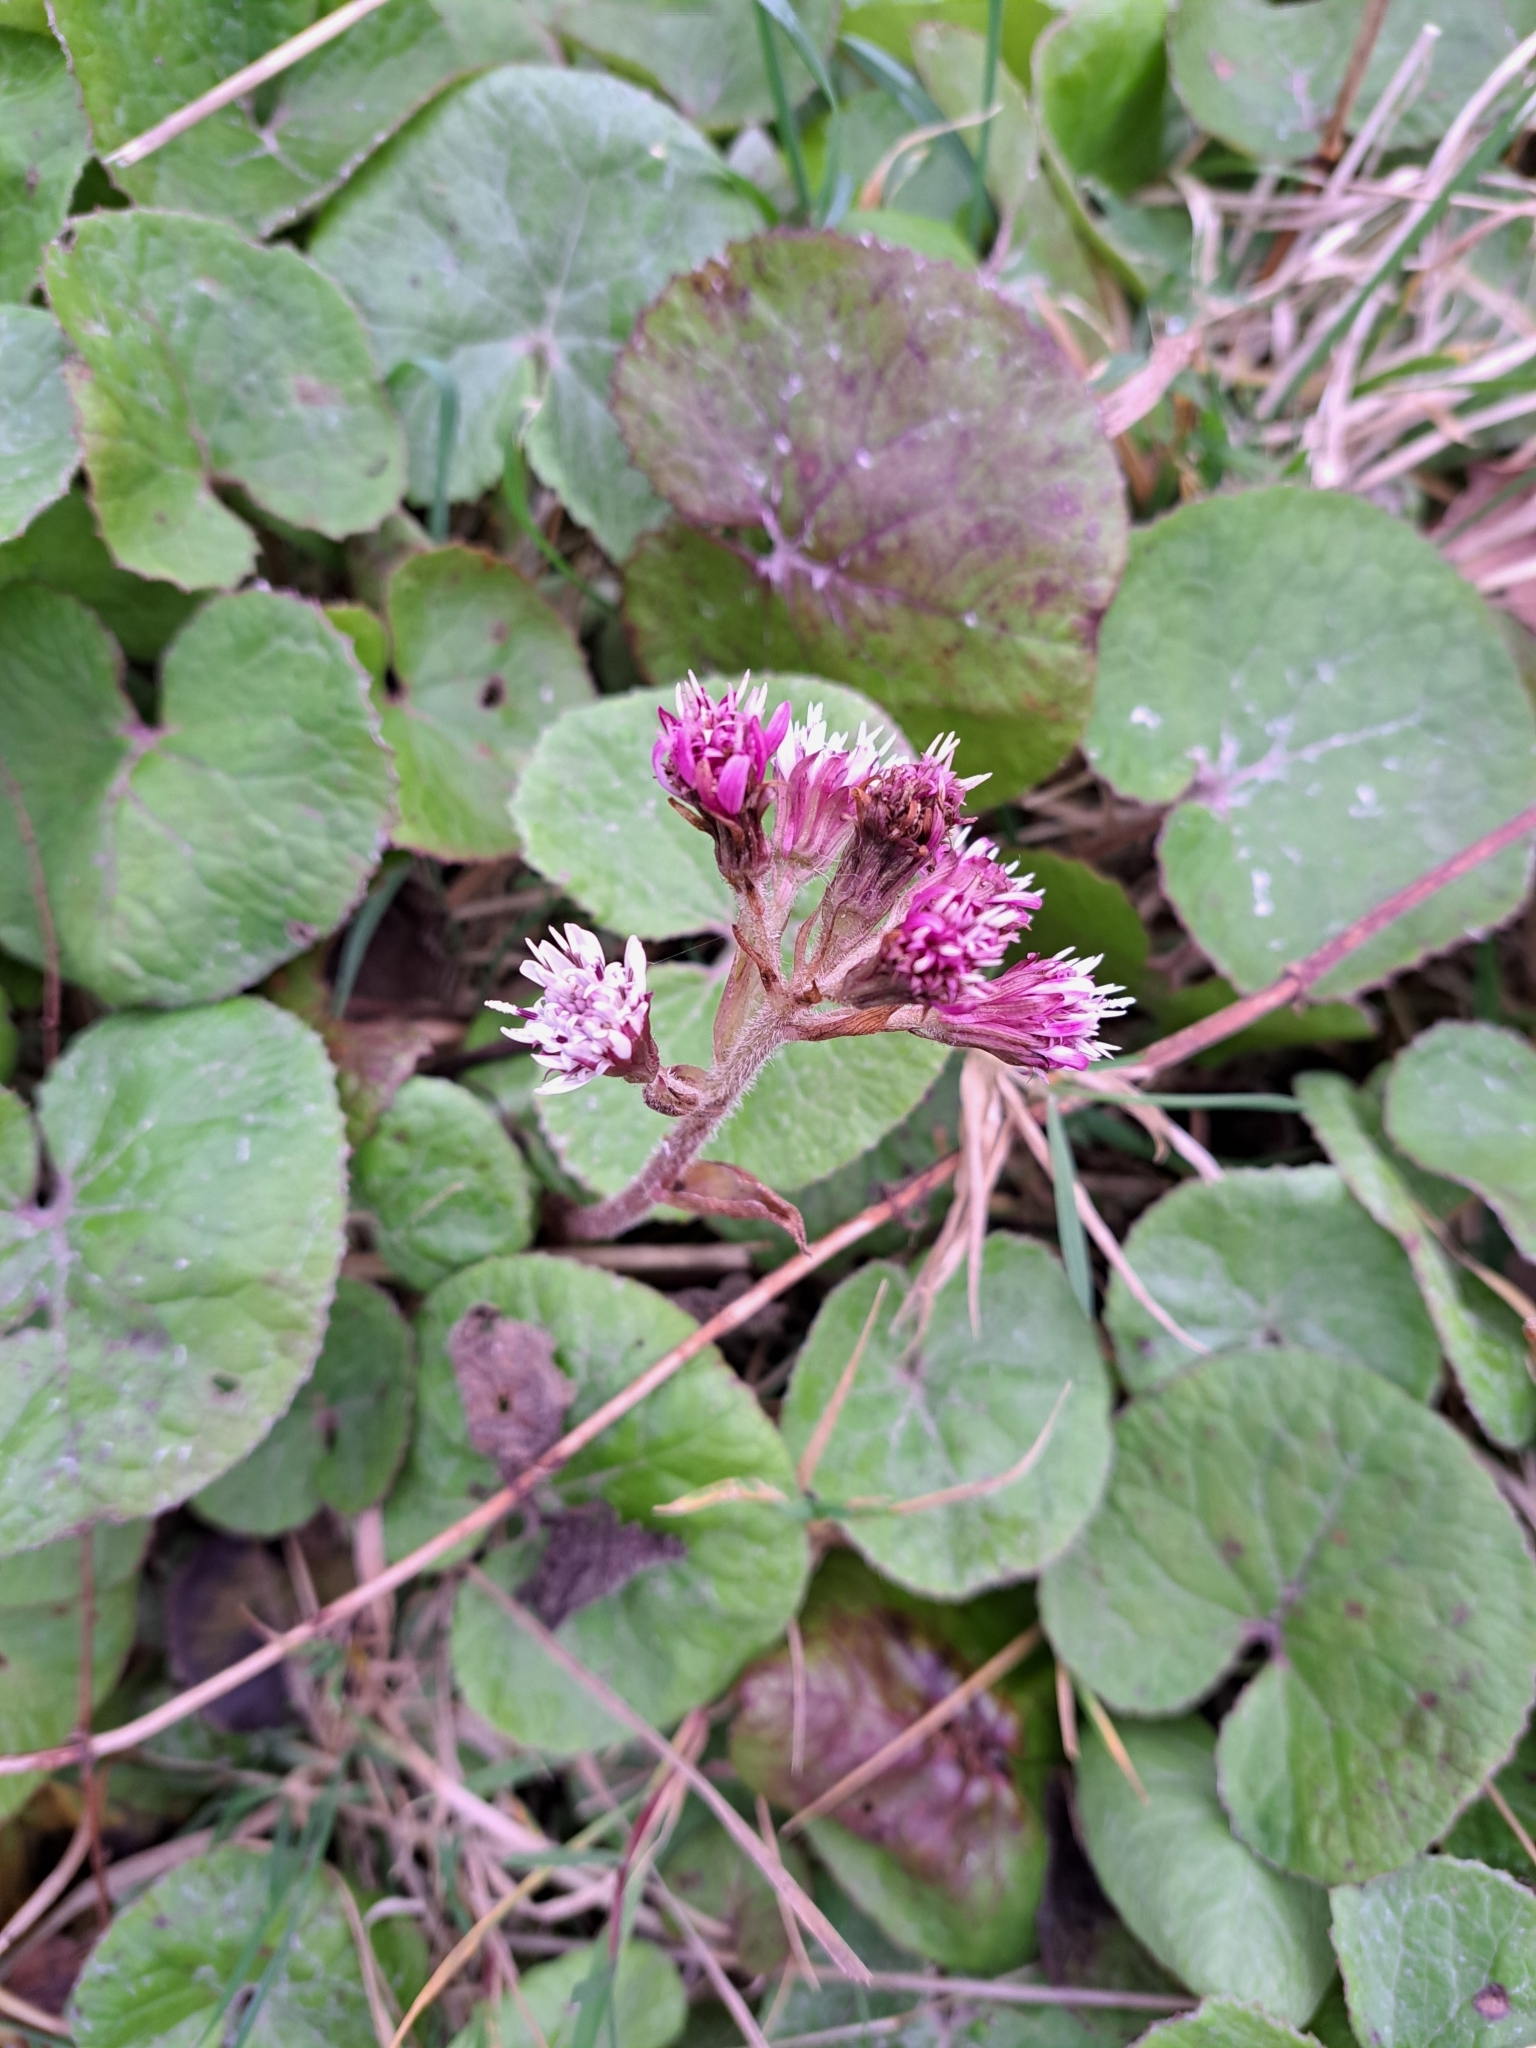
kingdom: Plantae
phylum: Tracheophyta
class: Magnoliopsida
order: Asterales
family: Asteraceae
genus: Petasites
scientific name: Petasites pyrenaicus
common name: Winter heliotrope
